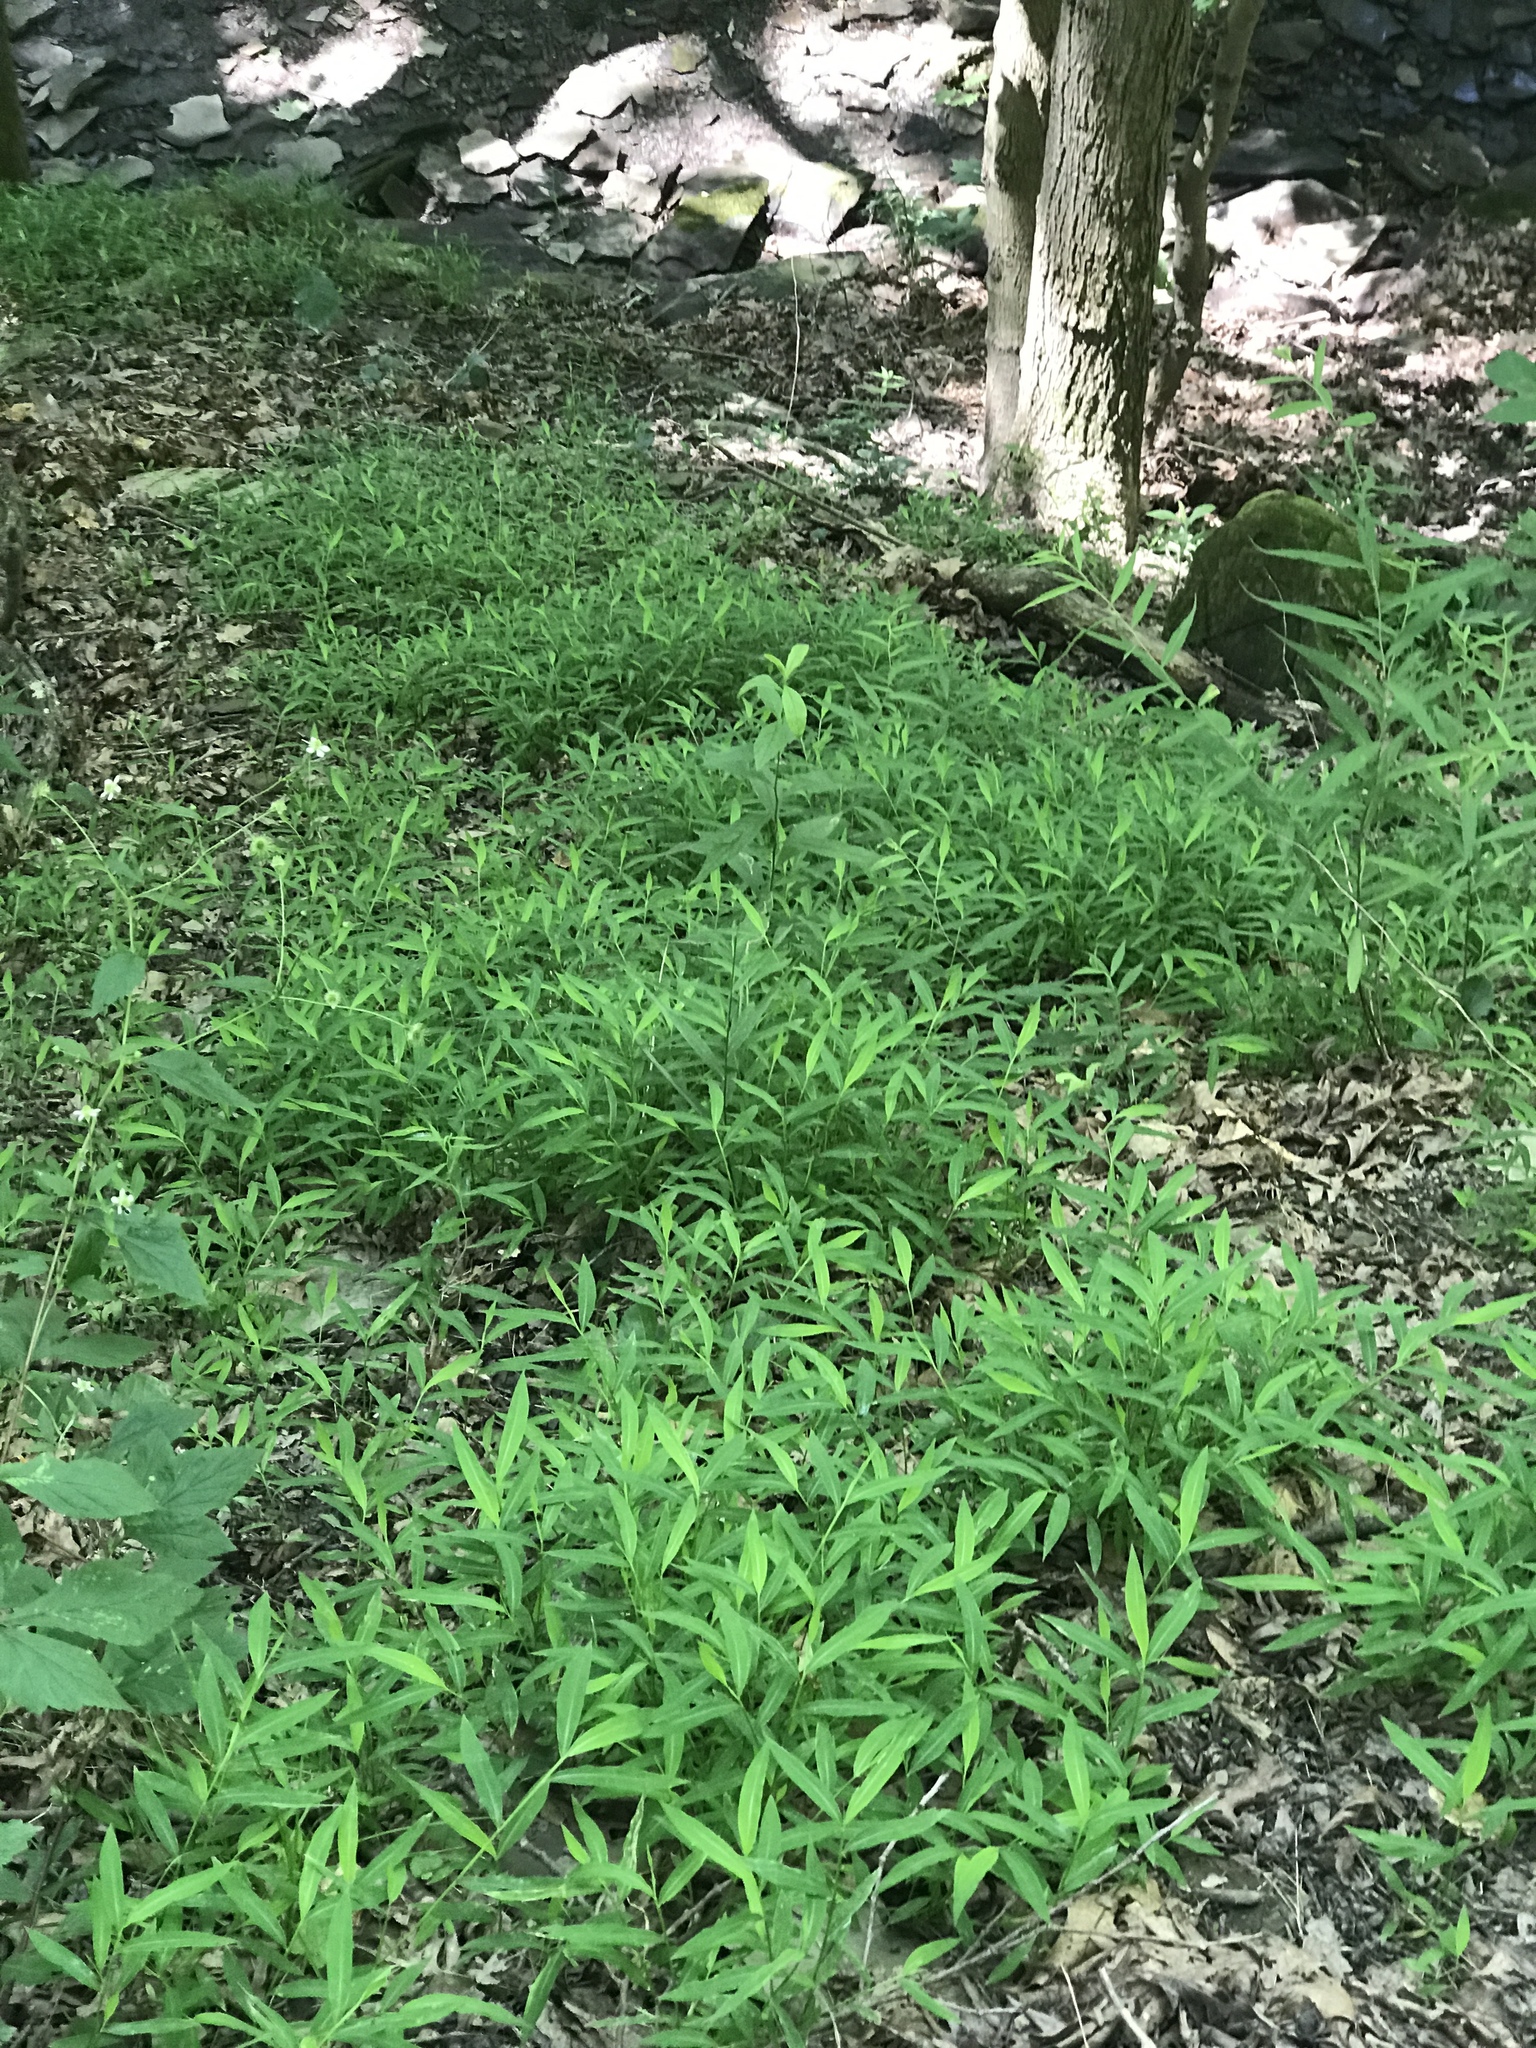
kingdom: Plantae
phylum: Tracheophyta
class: Liliopsida
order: Poales
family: Poaceae
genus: Microstegium
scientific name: Microstegium vimineum
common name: Japanese stiltgrass
